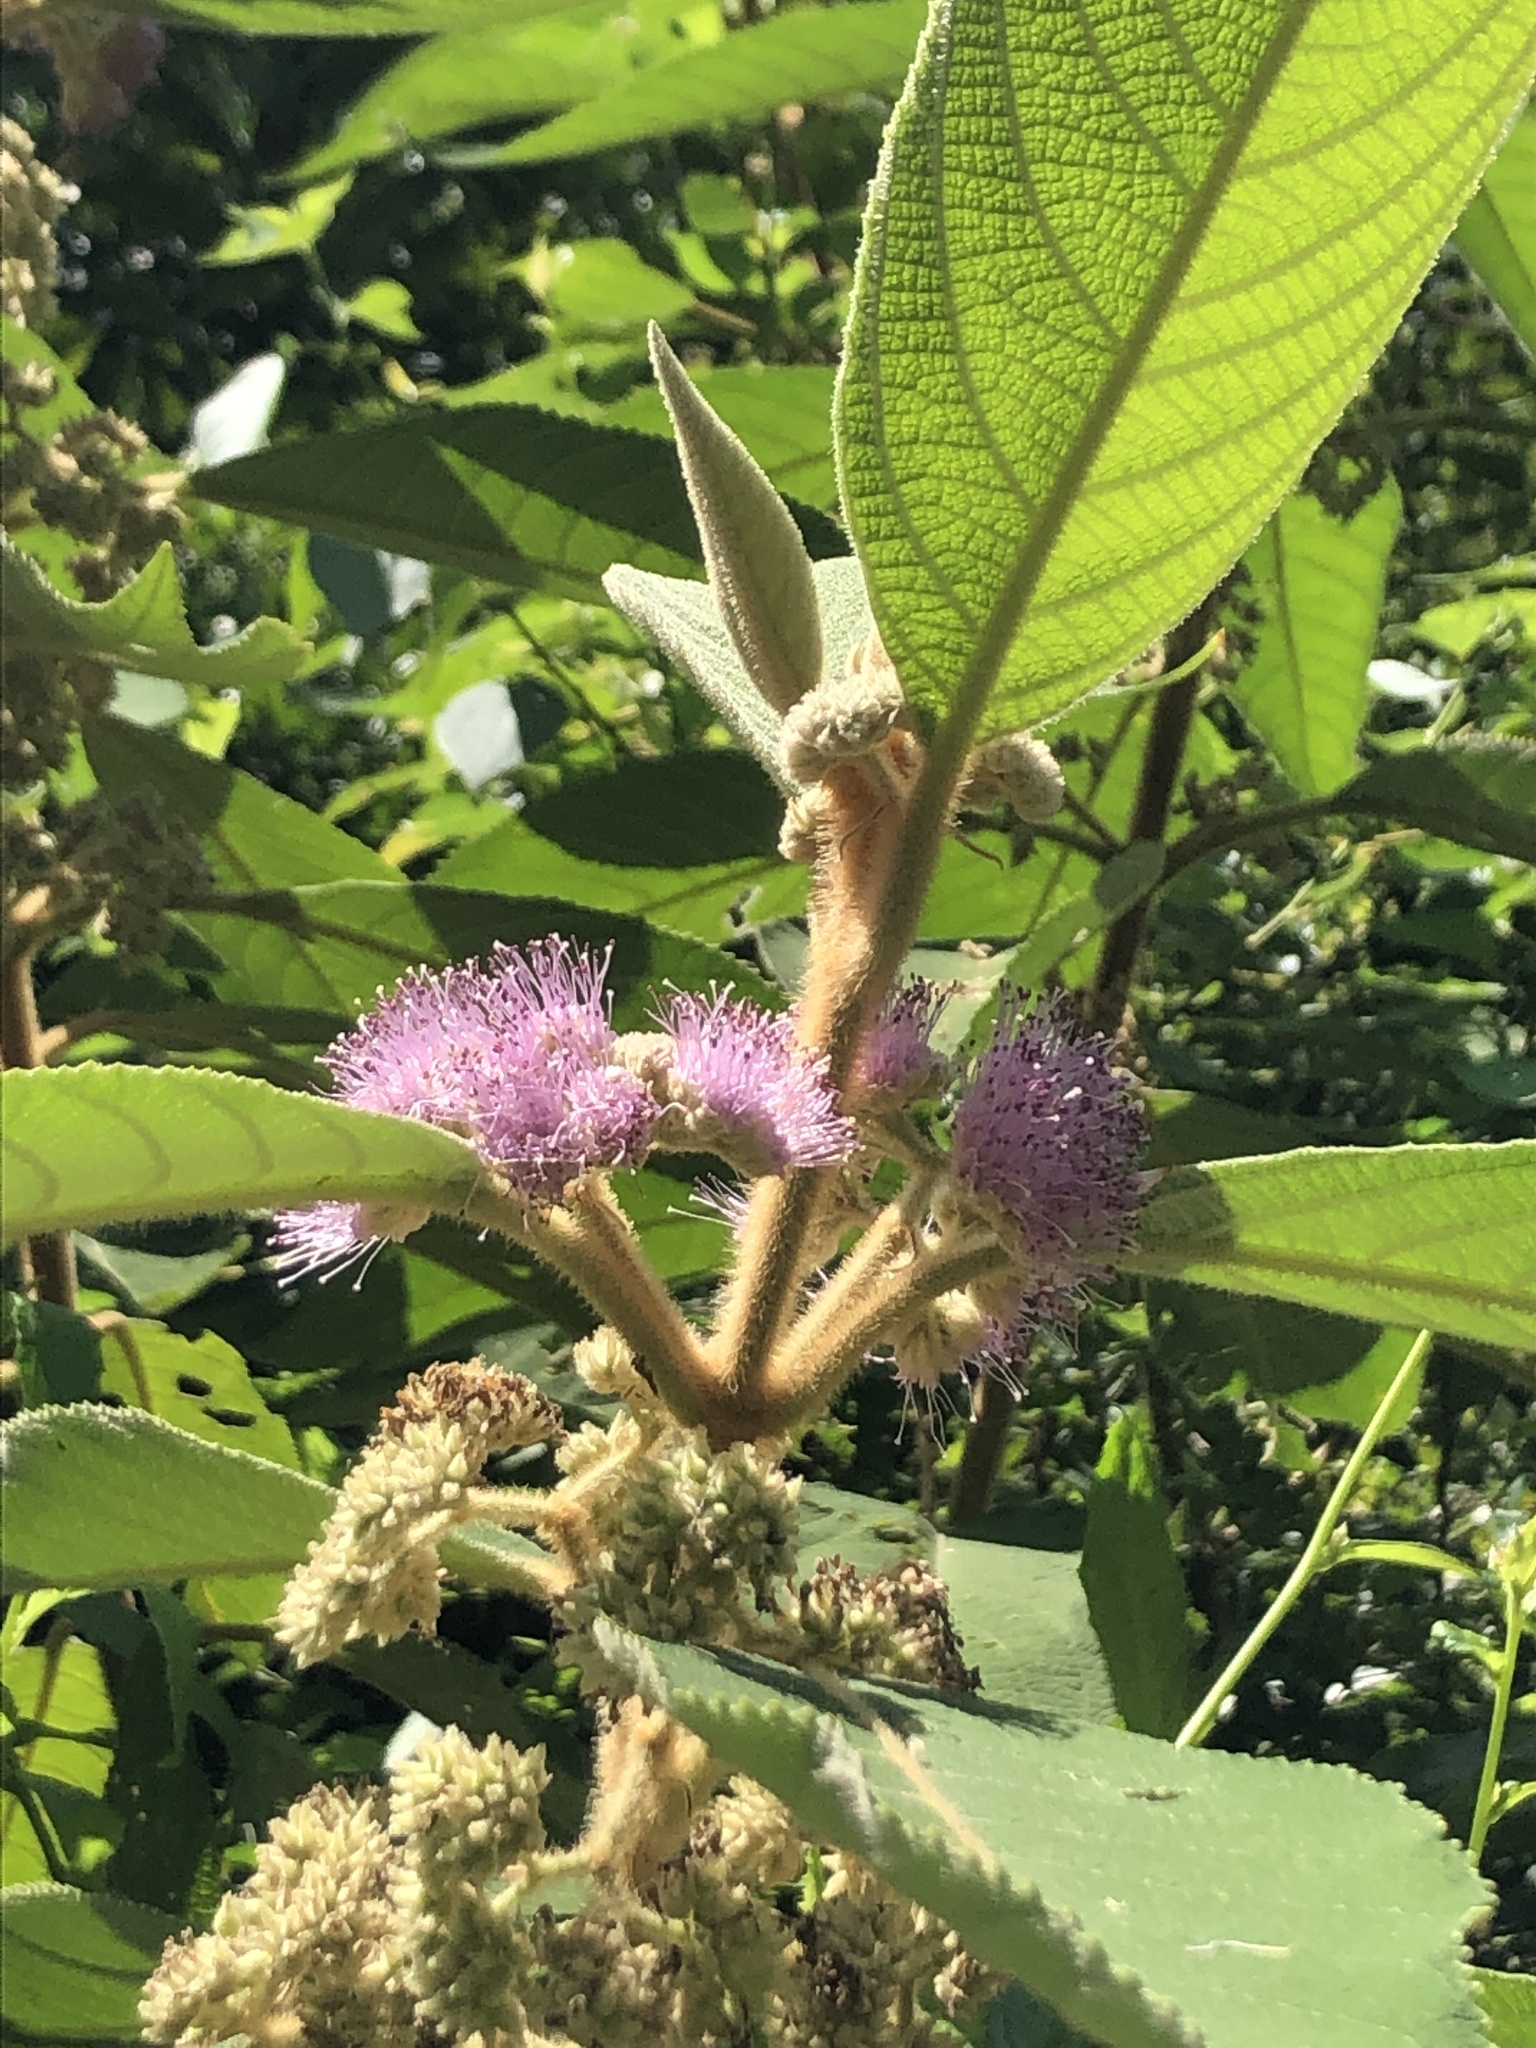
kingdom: Plantae
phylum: Tracheophyta
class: Magnoliopsida
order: Lamiales
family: Lamiaceae
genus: Callicarpa
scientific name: Callicarpa kochiana
